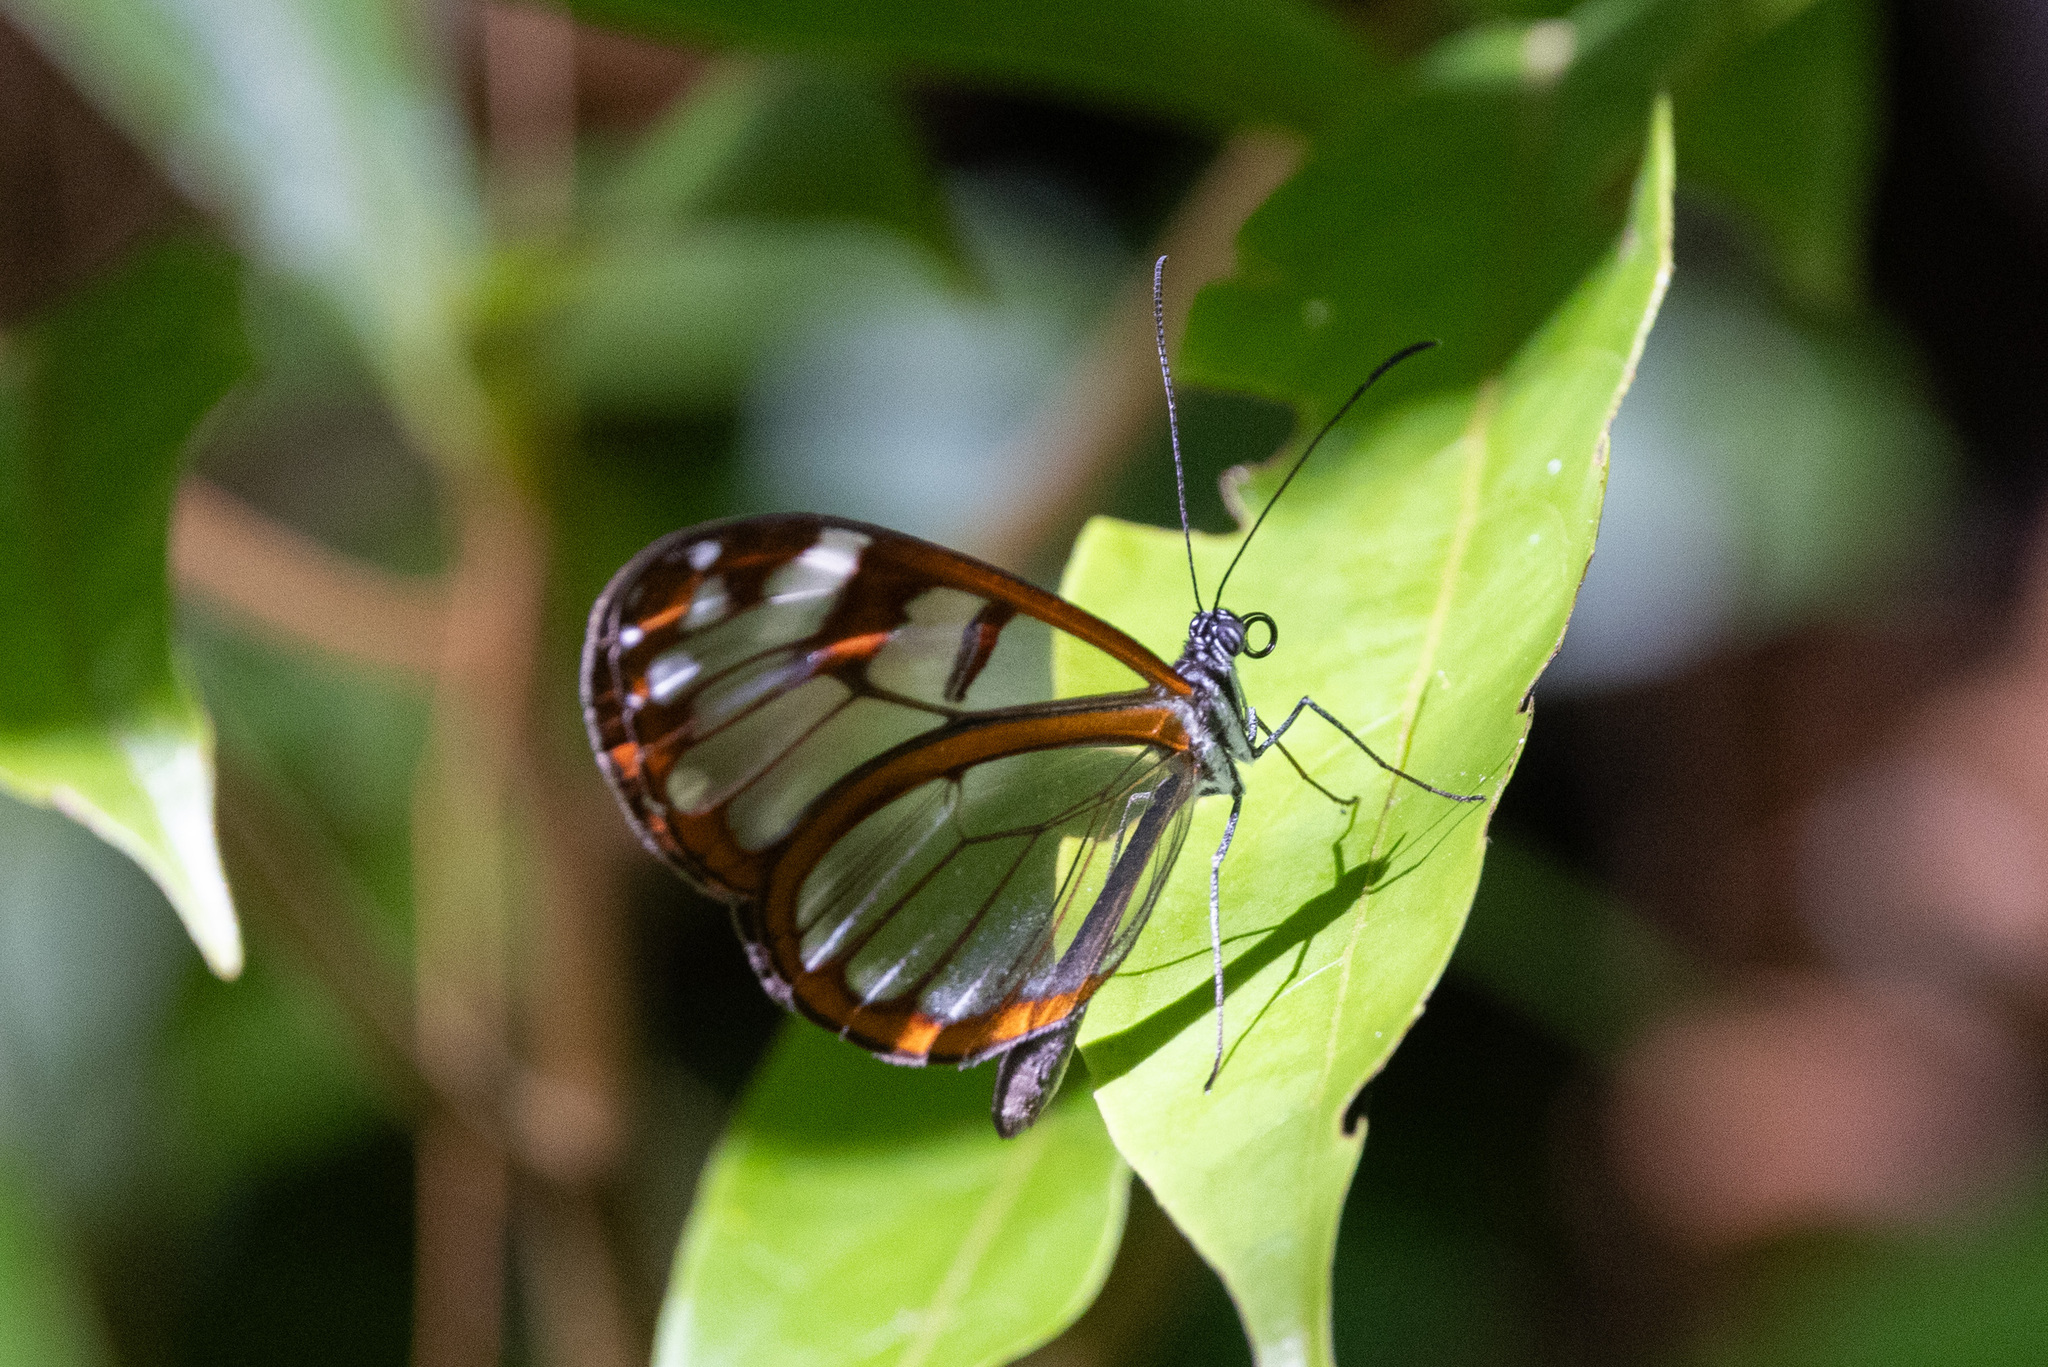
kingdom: Animalia
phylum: Arthropoda
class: Insecta
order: Lepidoptera
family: Nymphalidae
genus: Oleria
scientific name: Oleria vicina
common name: Vicina clearwing
